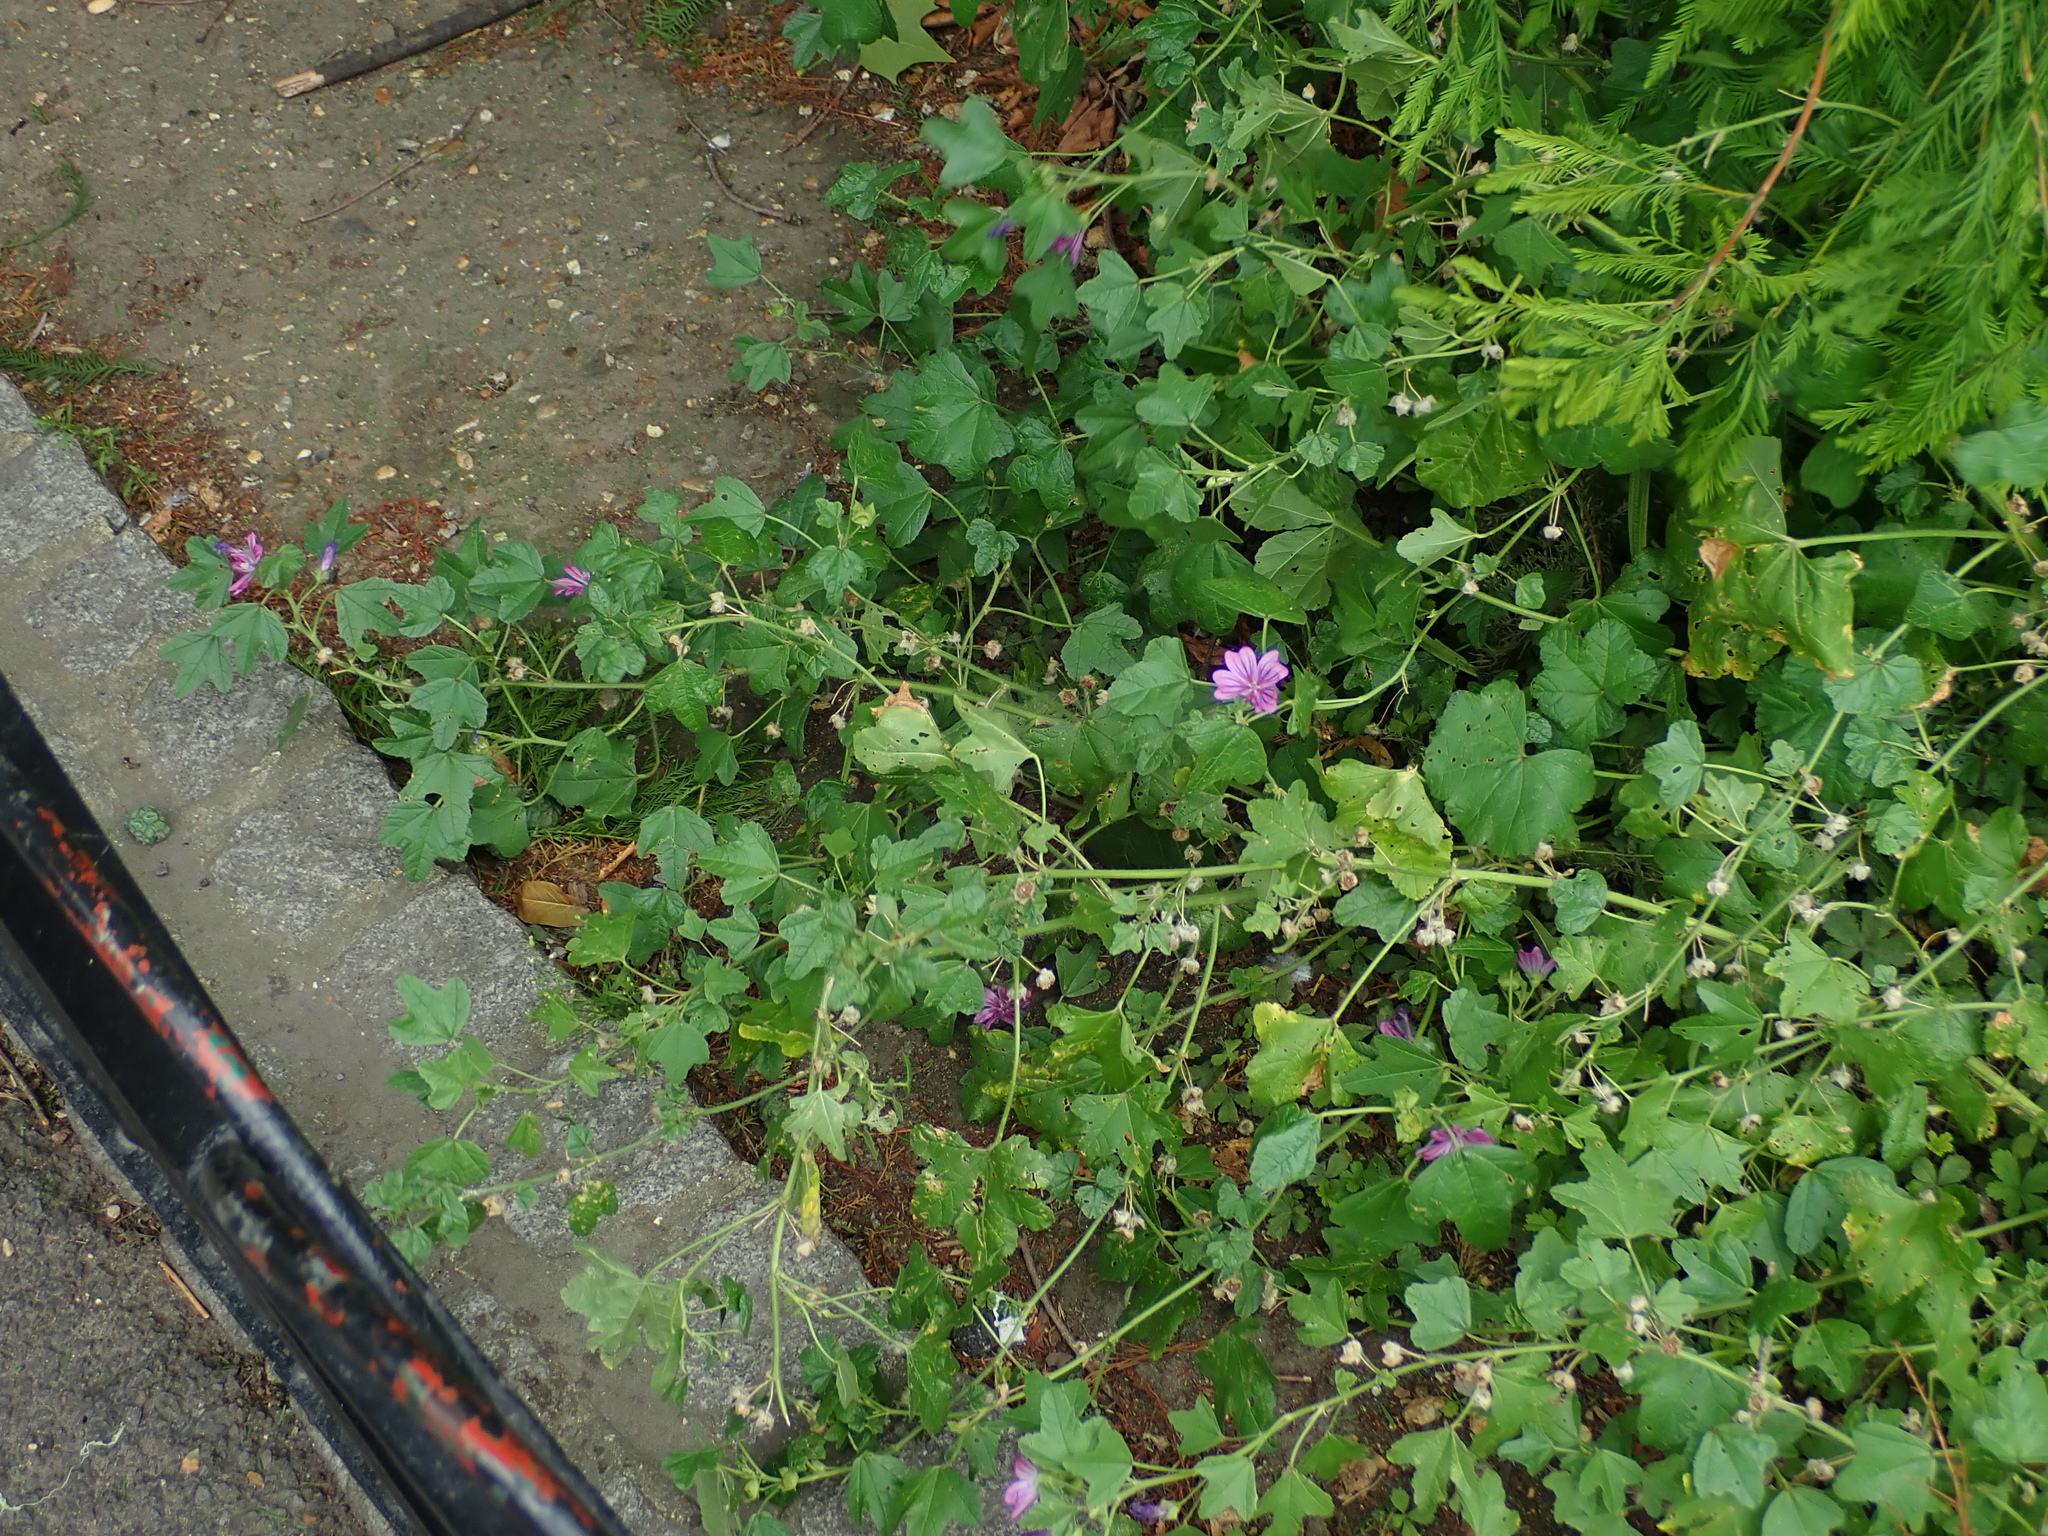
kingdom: Plantae
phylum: Tracheophyta
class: Magnoliopsida
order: Malvales
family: Malvaceae
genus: Malva
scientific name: Malva sylvestris
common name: Common mallow
